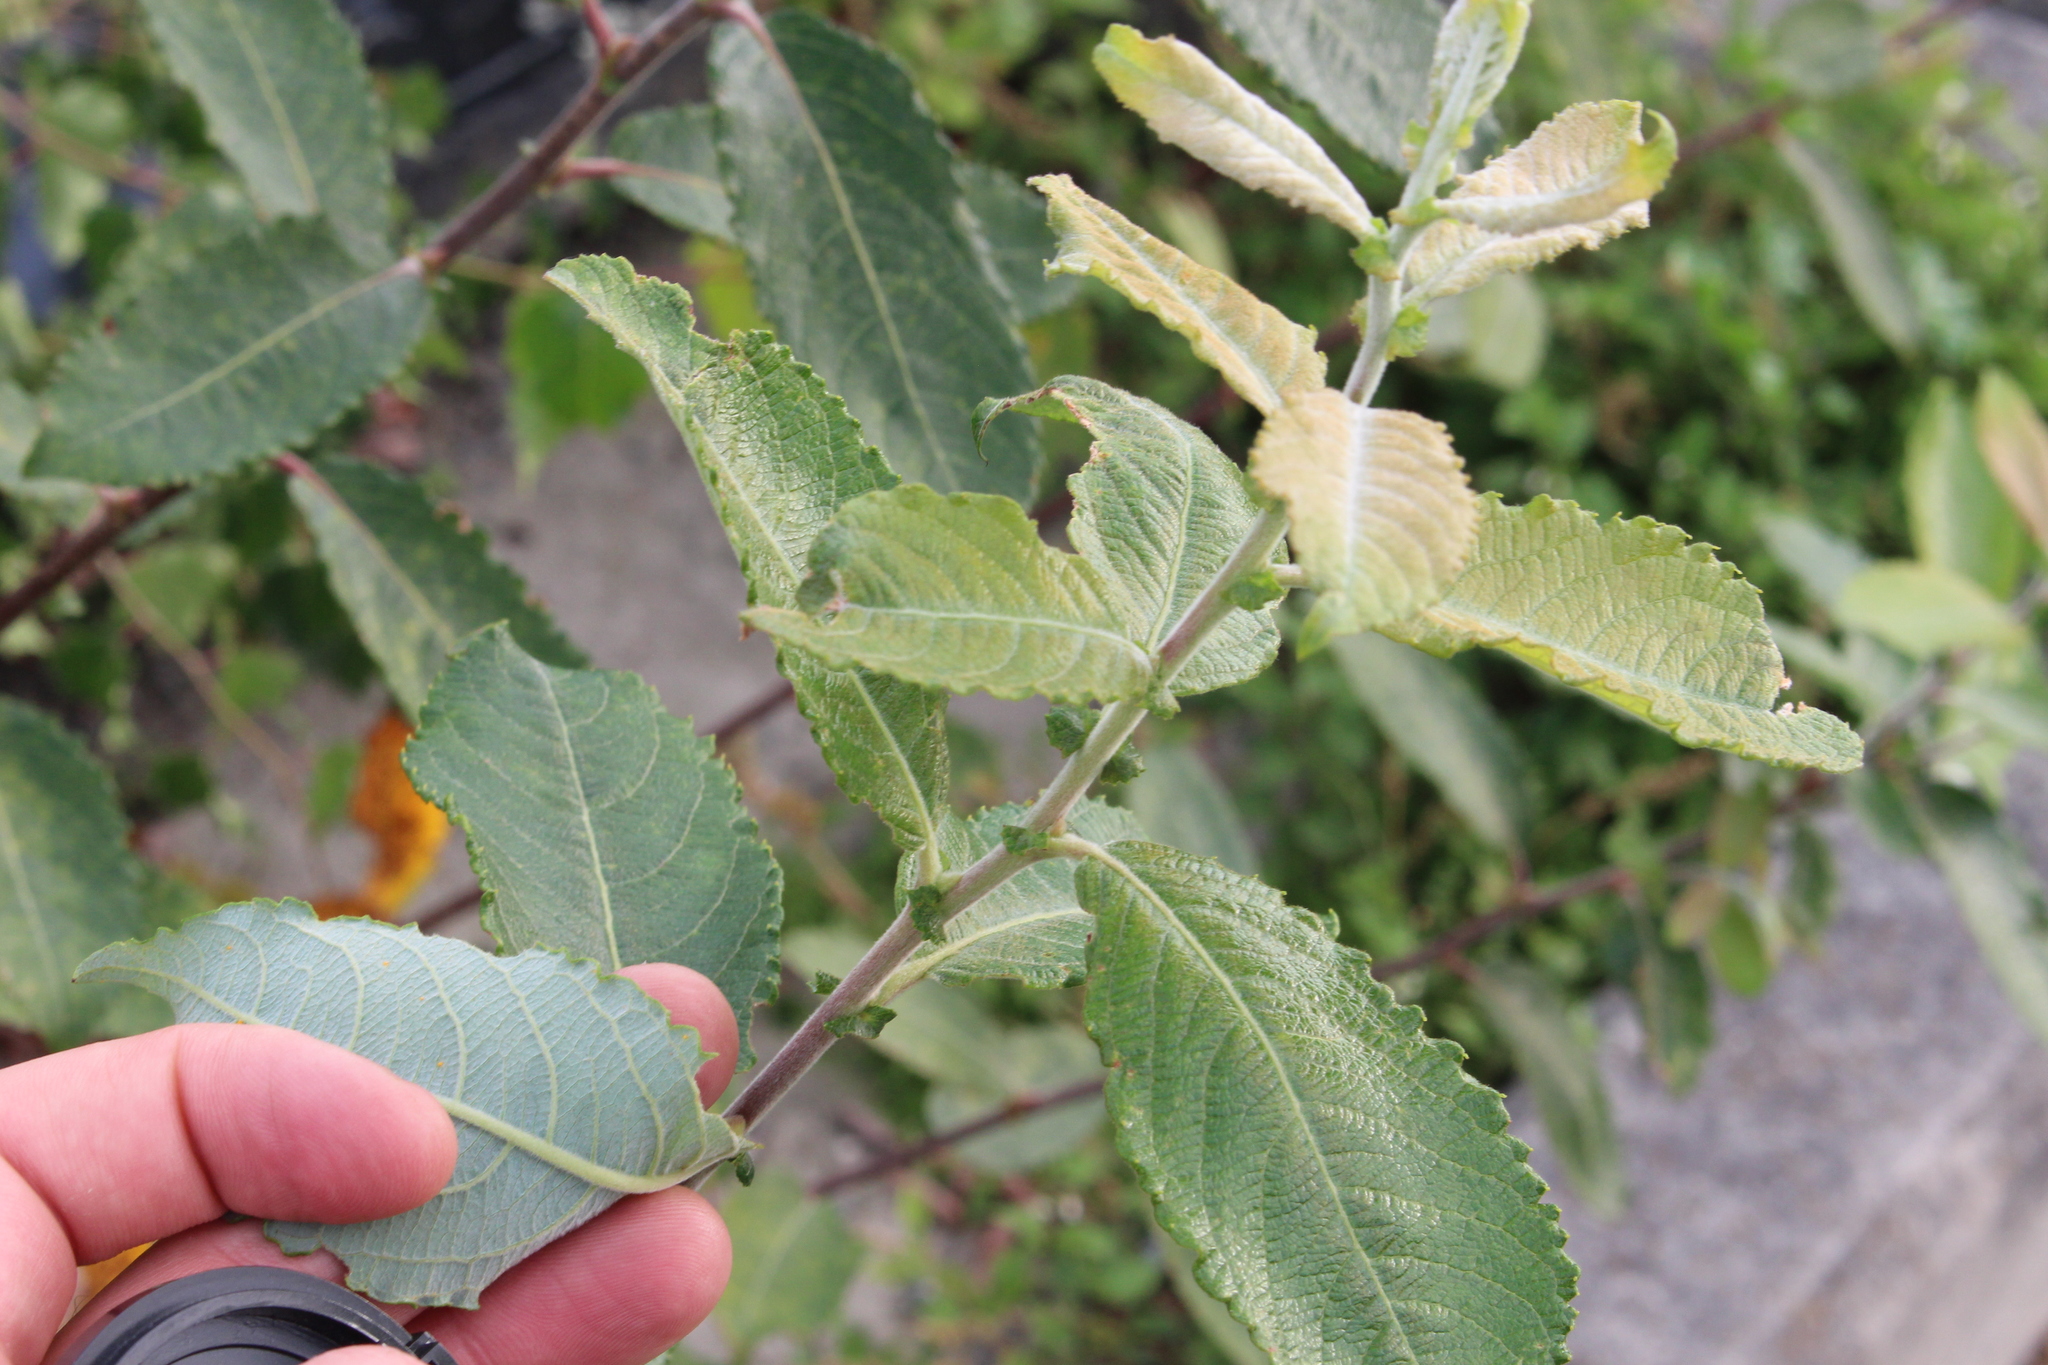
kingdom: Plantae
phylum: Tracheophyta
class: Magnoliopsida
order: Malpighiales
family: Salicaceae
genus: Salix
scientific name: Salix cinerea
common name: Common sallow
